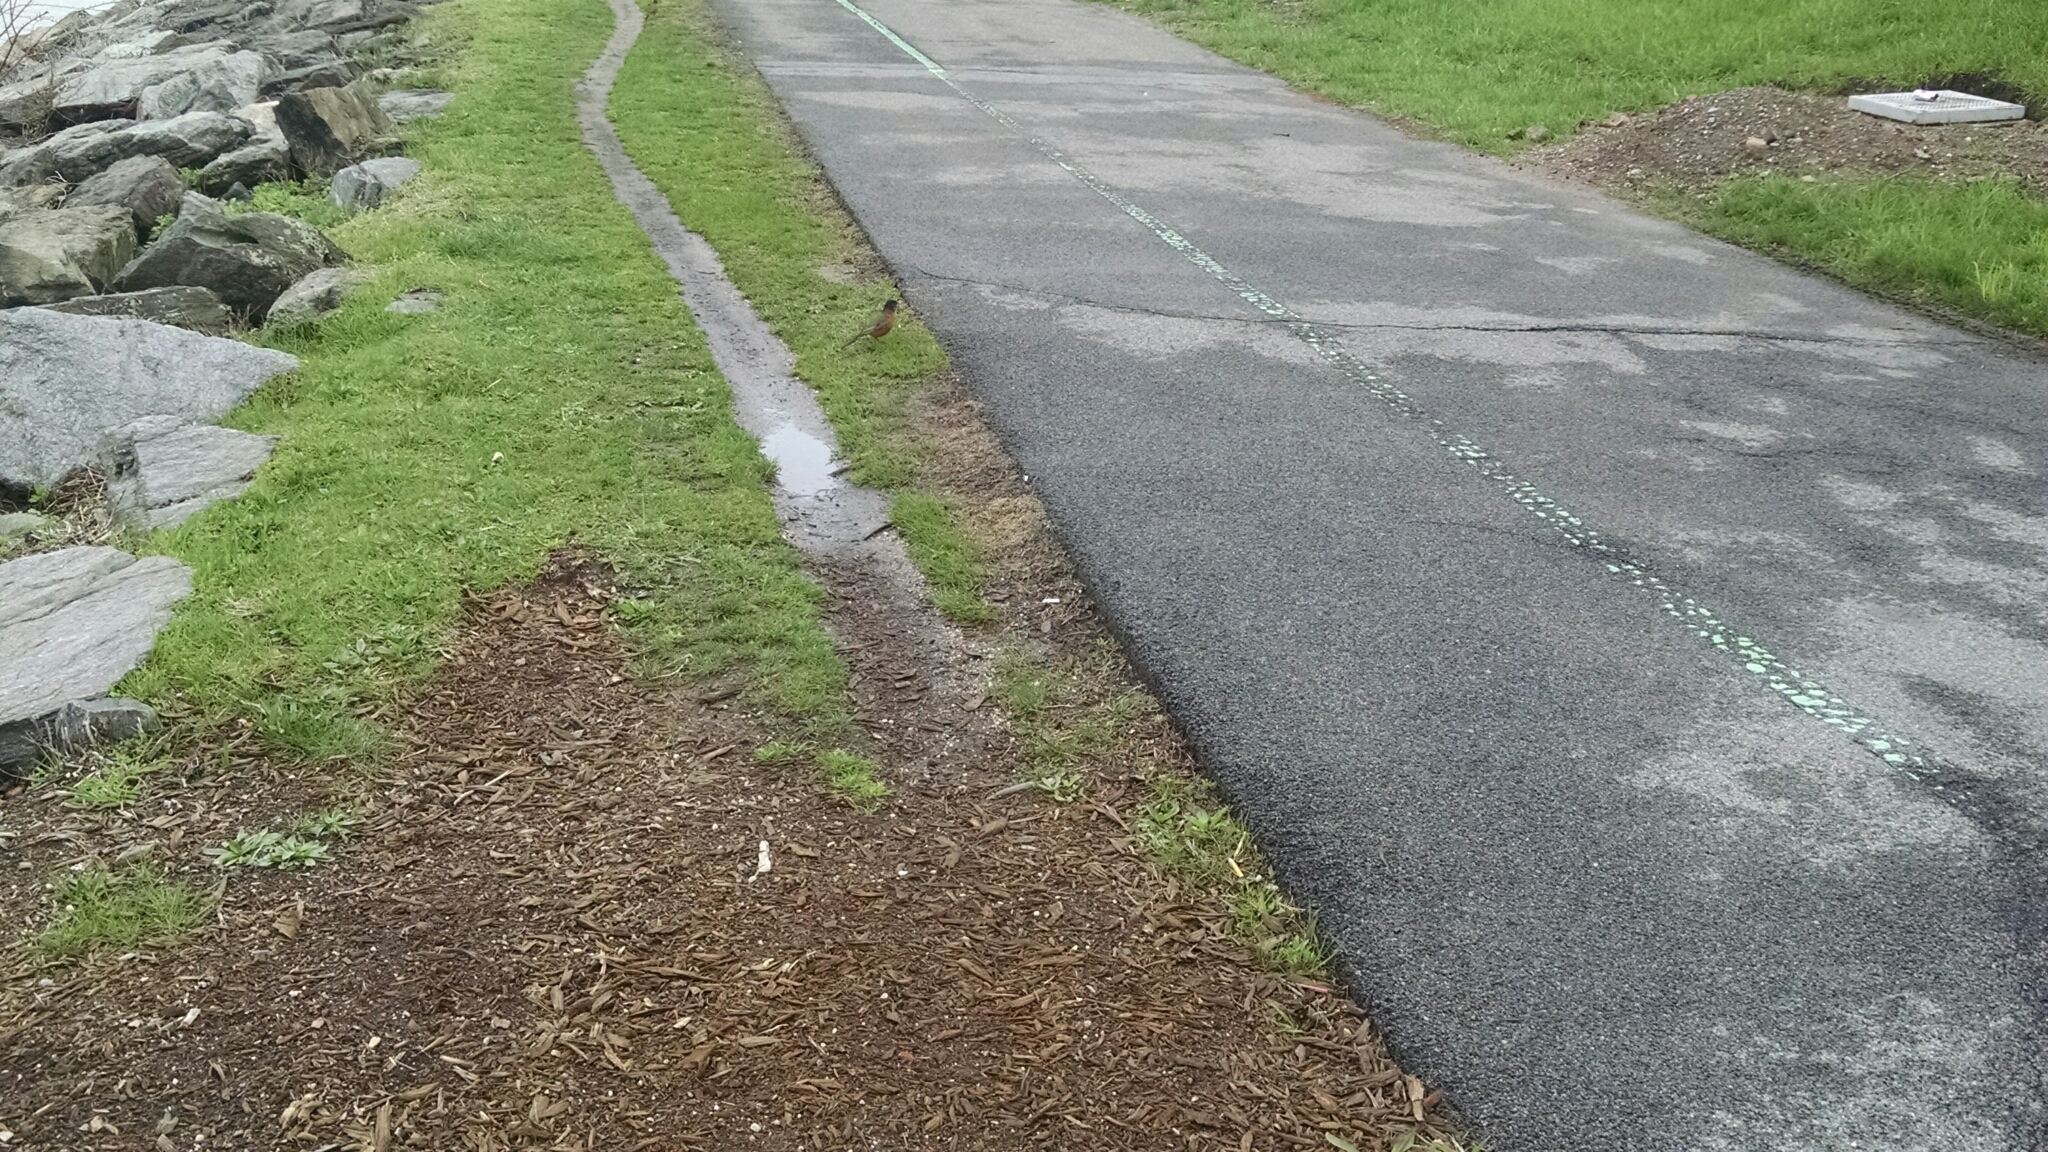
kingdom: Animalia
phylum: Chordata
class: Aves
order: Passeriformes
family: Turdidae
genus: Turdus
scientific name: Turdus migratorius
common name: American robin
